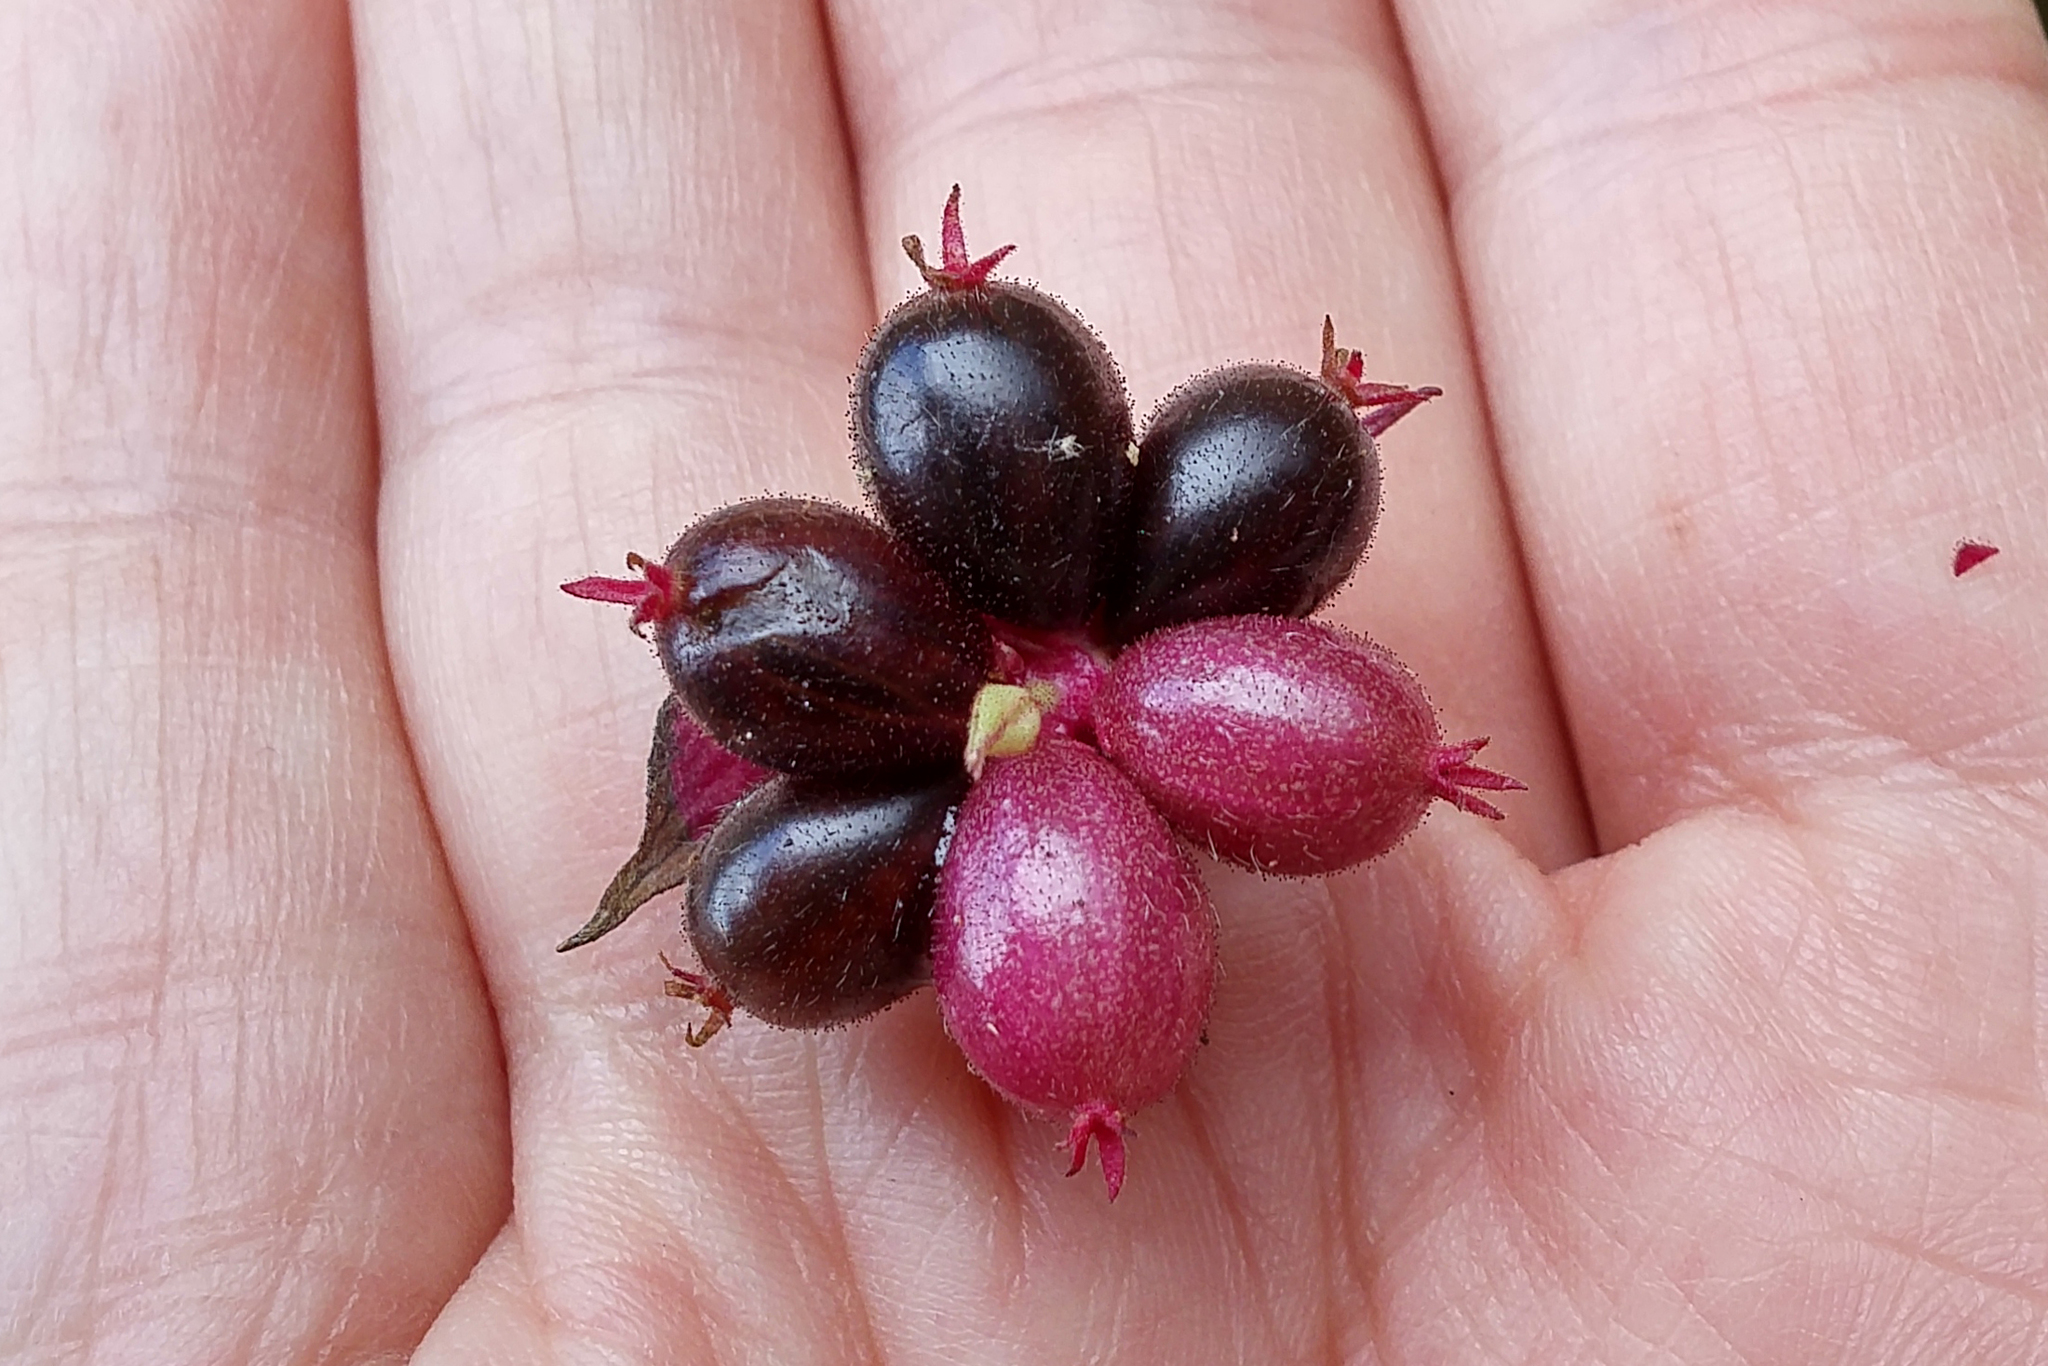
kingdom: Plantae
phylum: Tracheophyta
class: Magnoliopsida
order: Dipsacales
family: Caprifoliaceae
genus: Leycesteria
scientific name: Leycesteria formosa
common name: Himalayan honeysuckle
